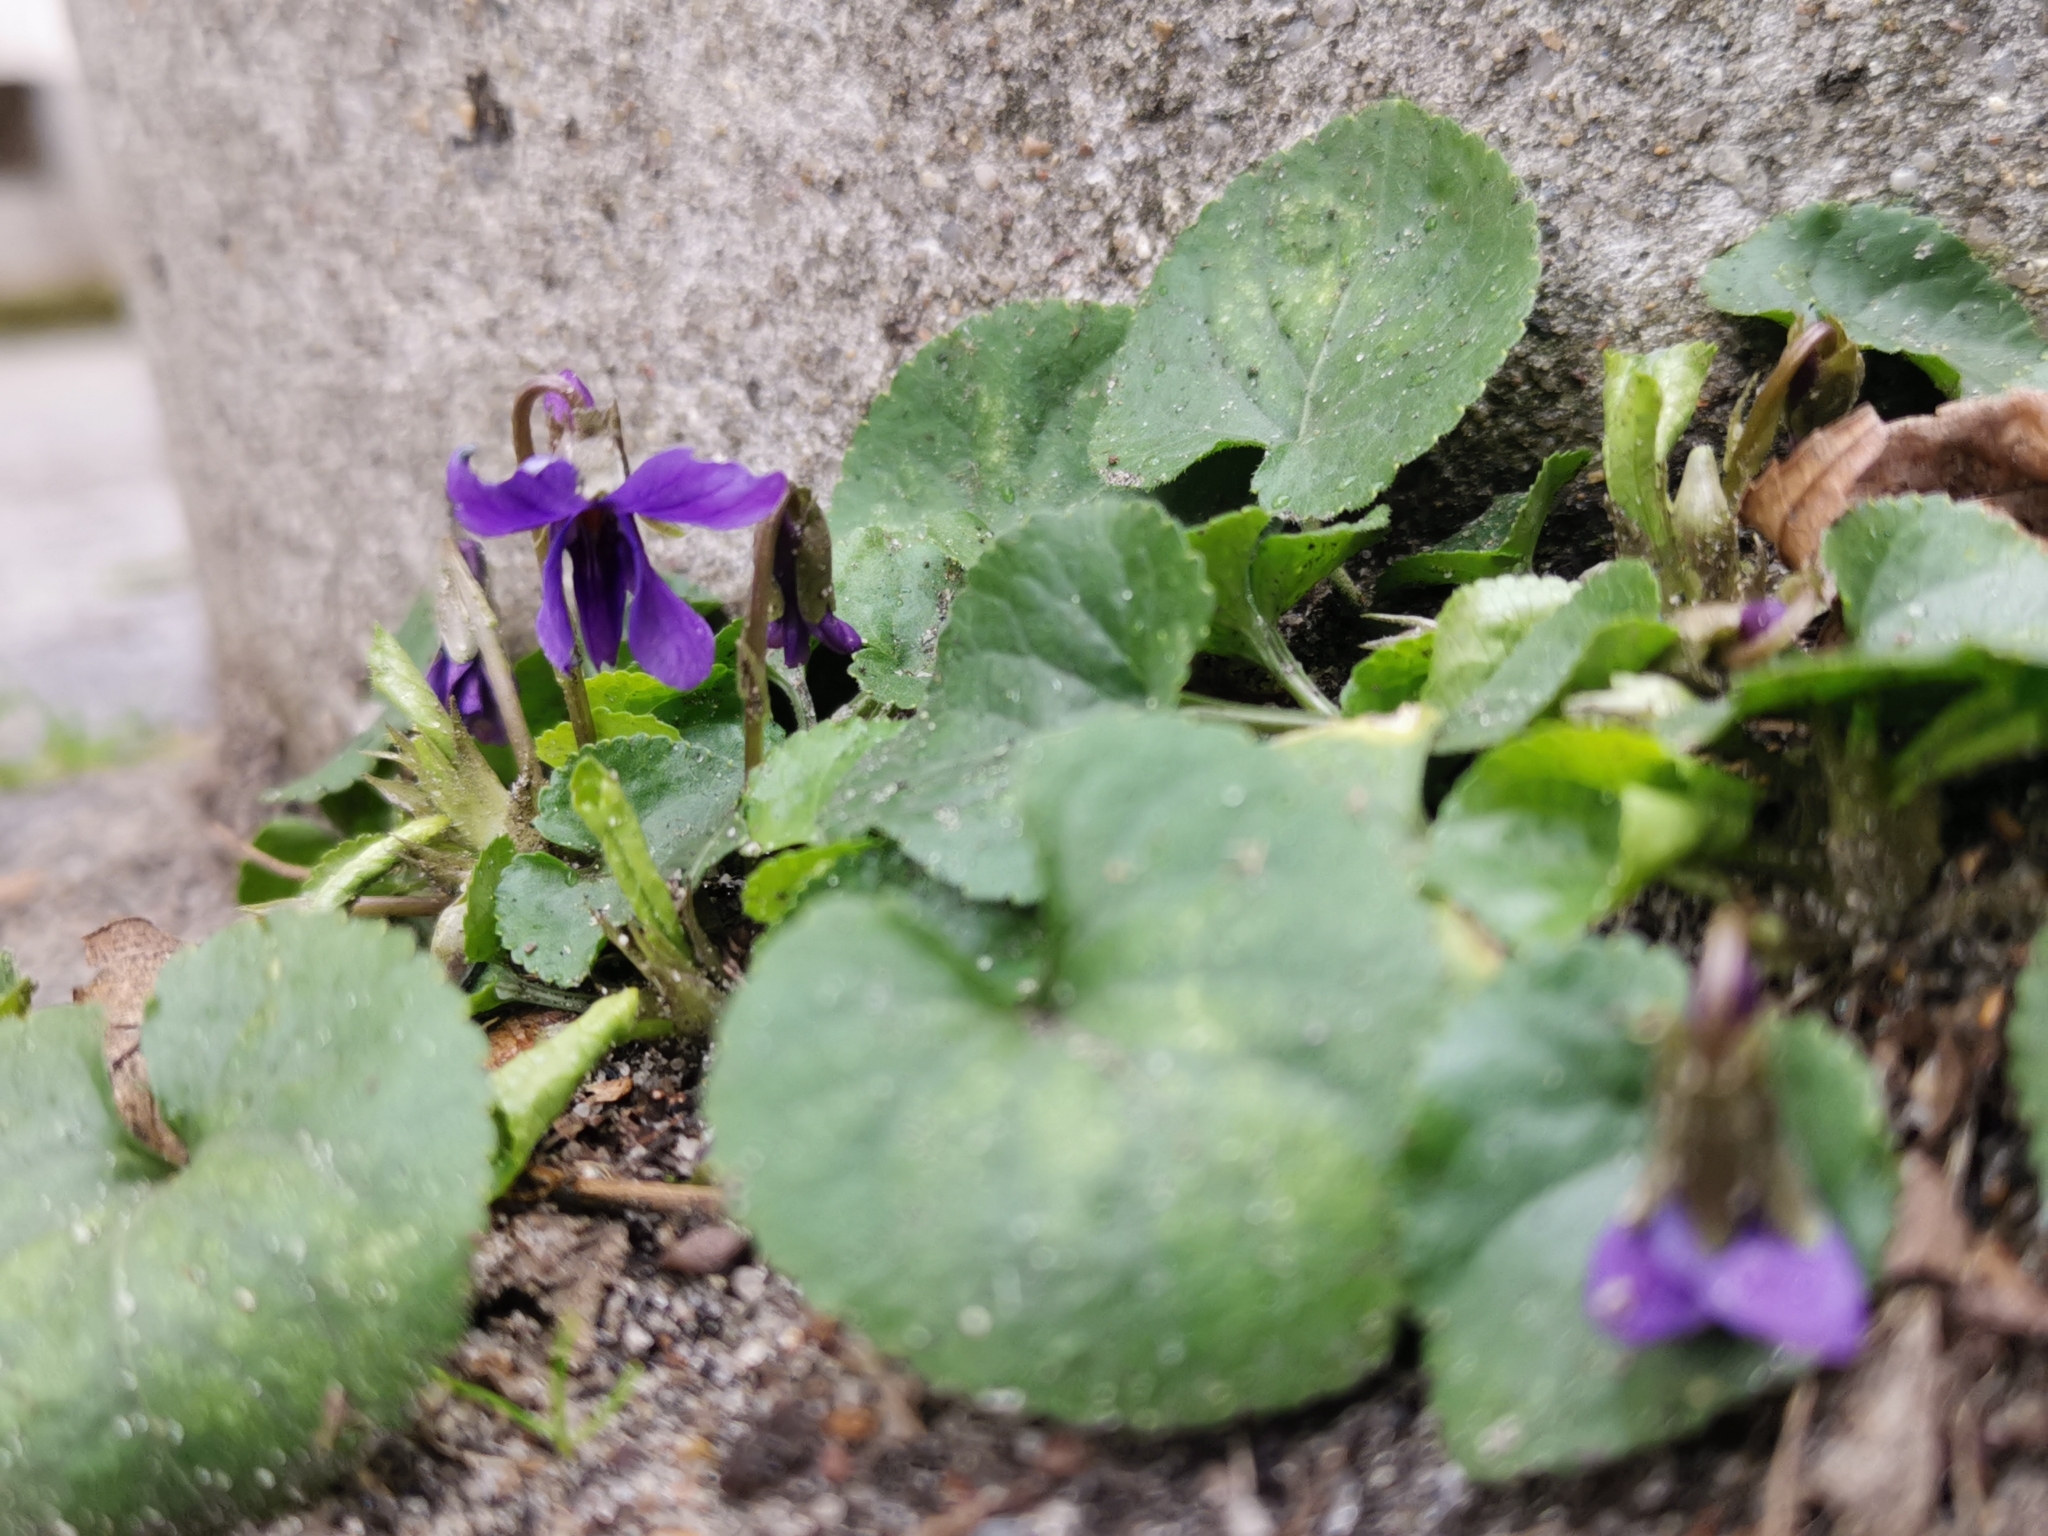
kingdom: Plantae
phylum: Tracheophyta
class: Magnoliopsida
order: Malpighiales
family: Violaceae
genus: Viola
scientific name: Viola odorata
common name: Sweet violet
